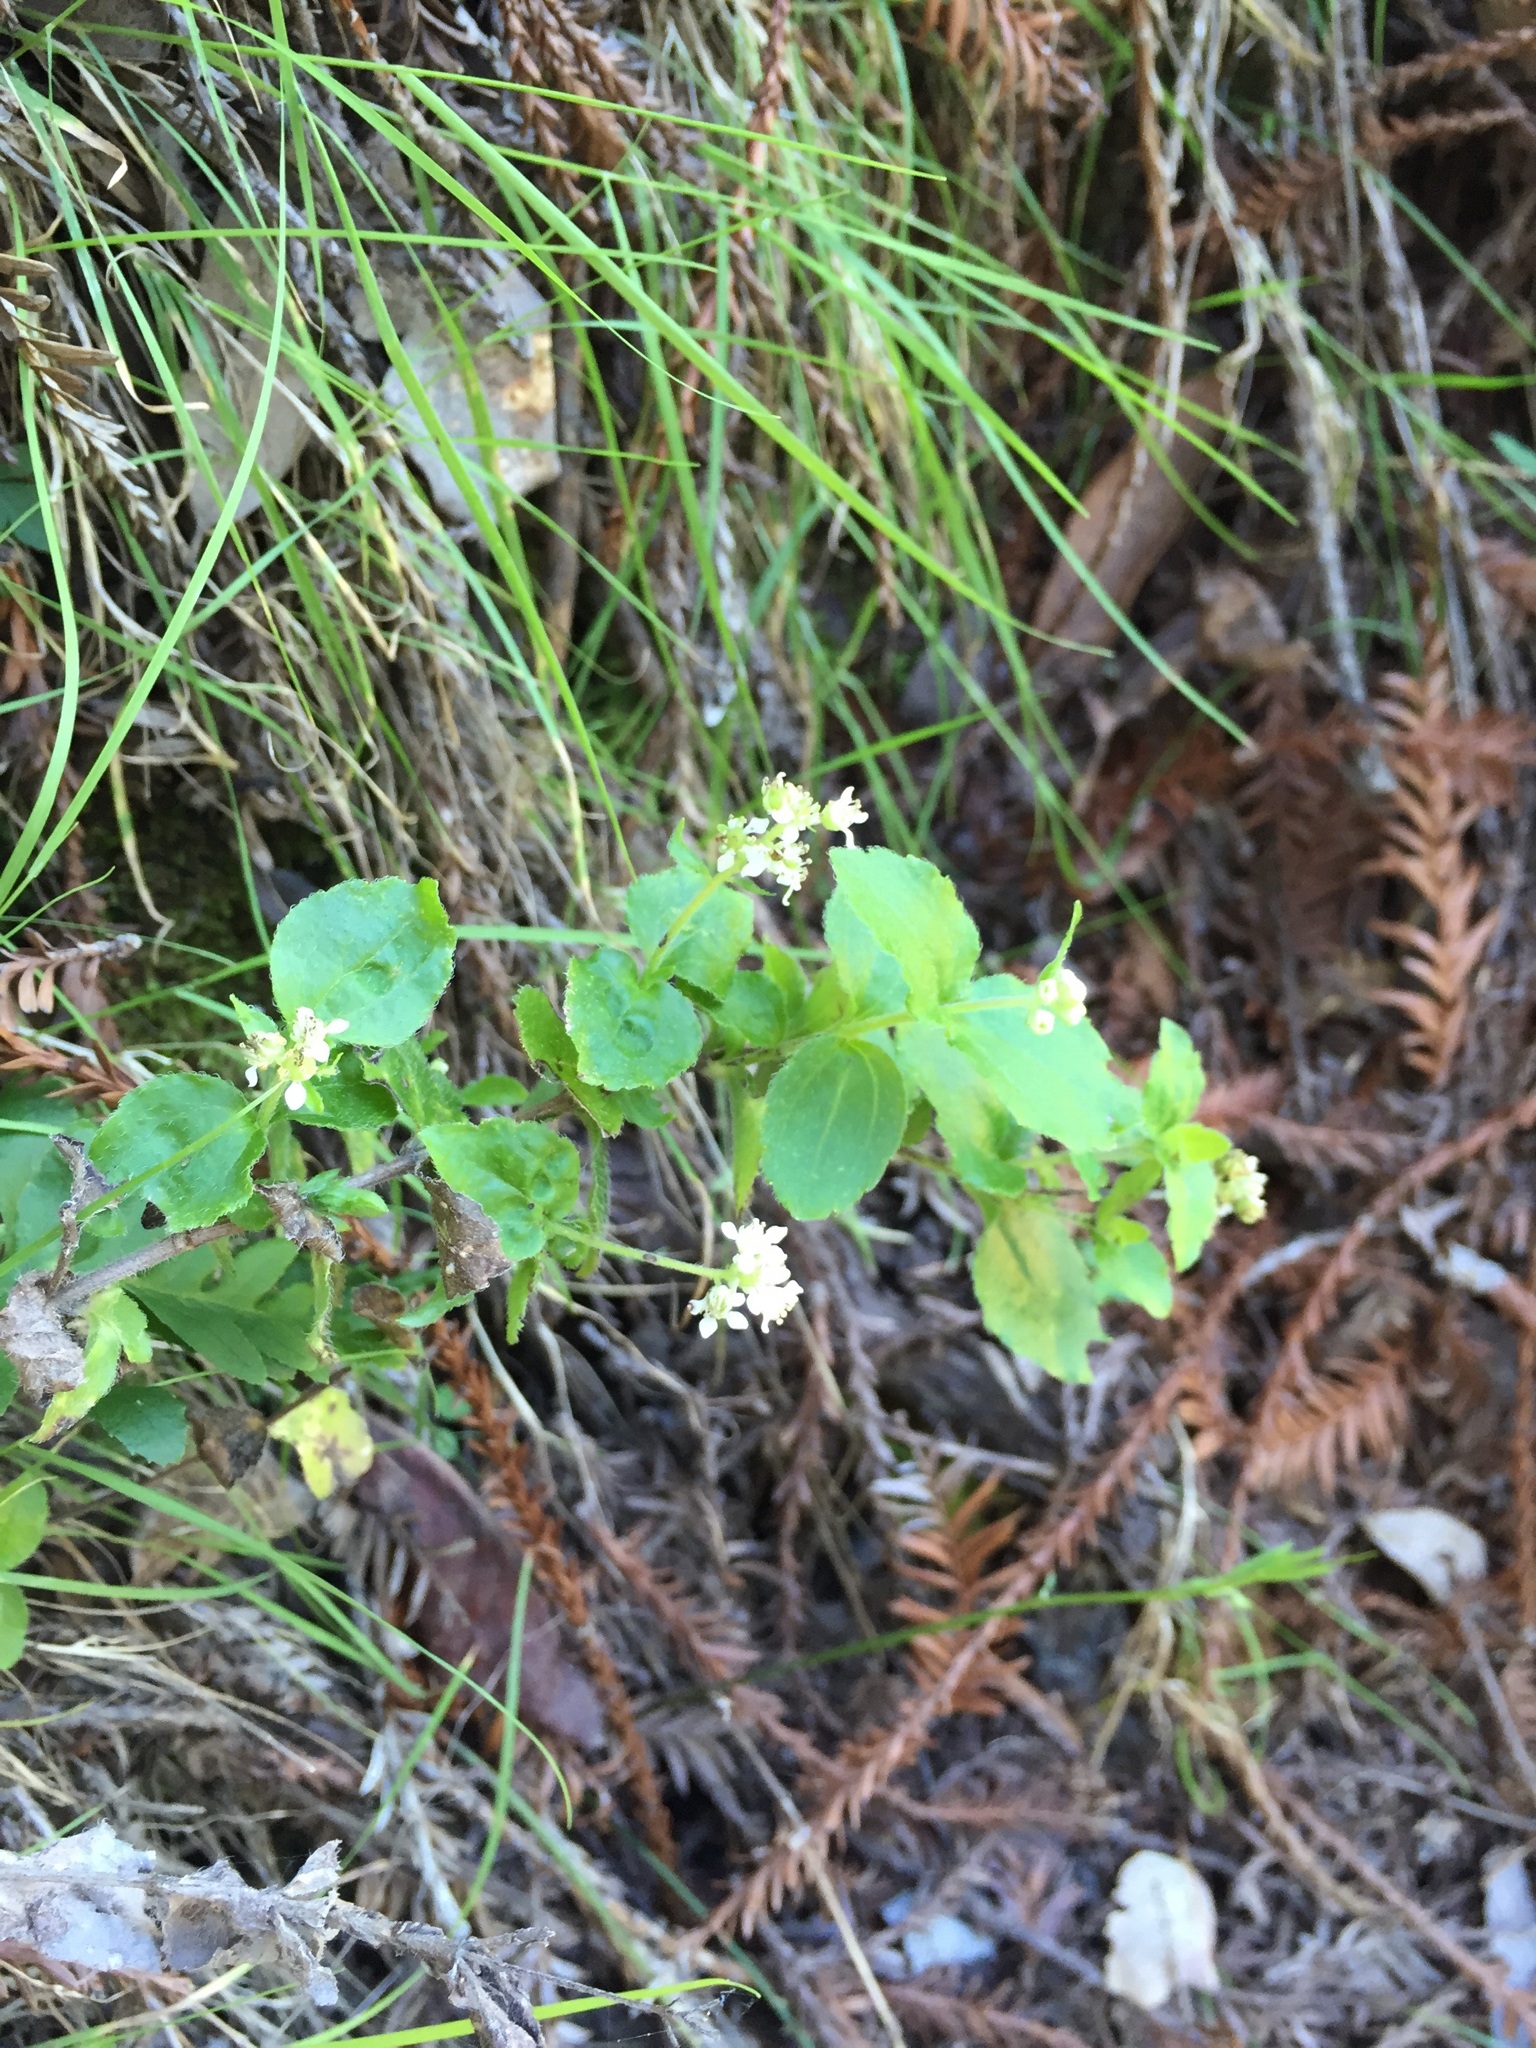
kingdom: Plantae
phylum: Tracheophyta
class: Magnoliopsida
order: Cornales
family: Hydrangeaceae
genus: Whipplea
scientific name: Whipplea modesta
